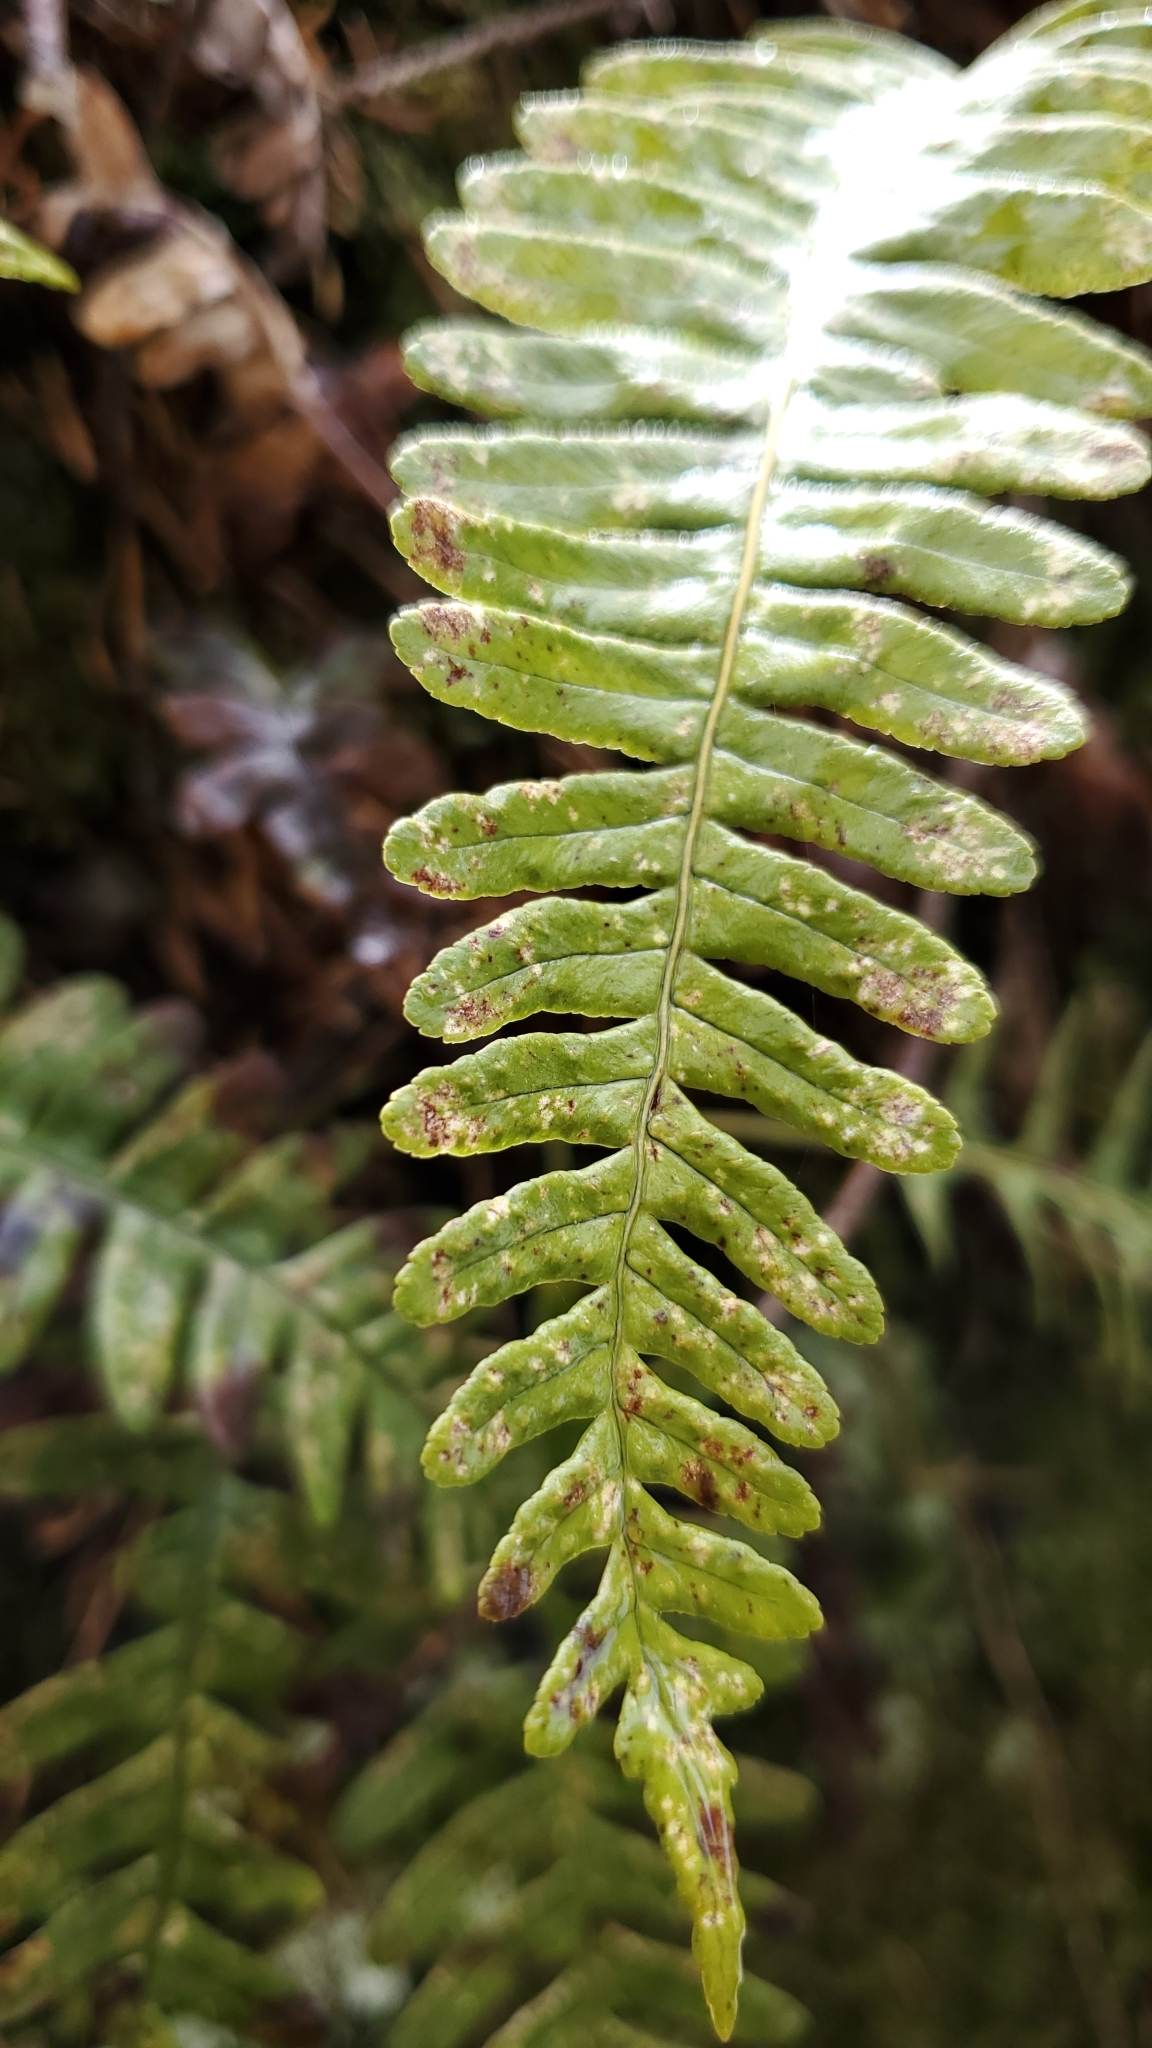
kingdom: Plantae
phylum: Tracheophyta
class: Polypodiopsida
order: Polypodiales
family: Polypodiaceae
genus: Polypodium
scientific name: Polypodium virginianum
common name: American wall fern
